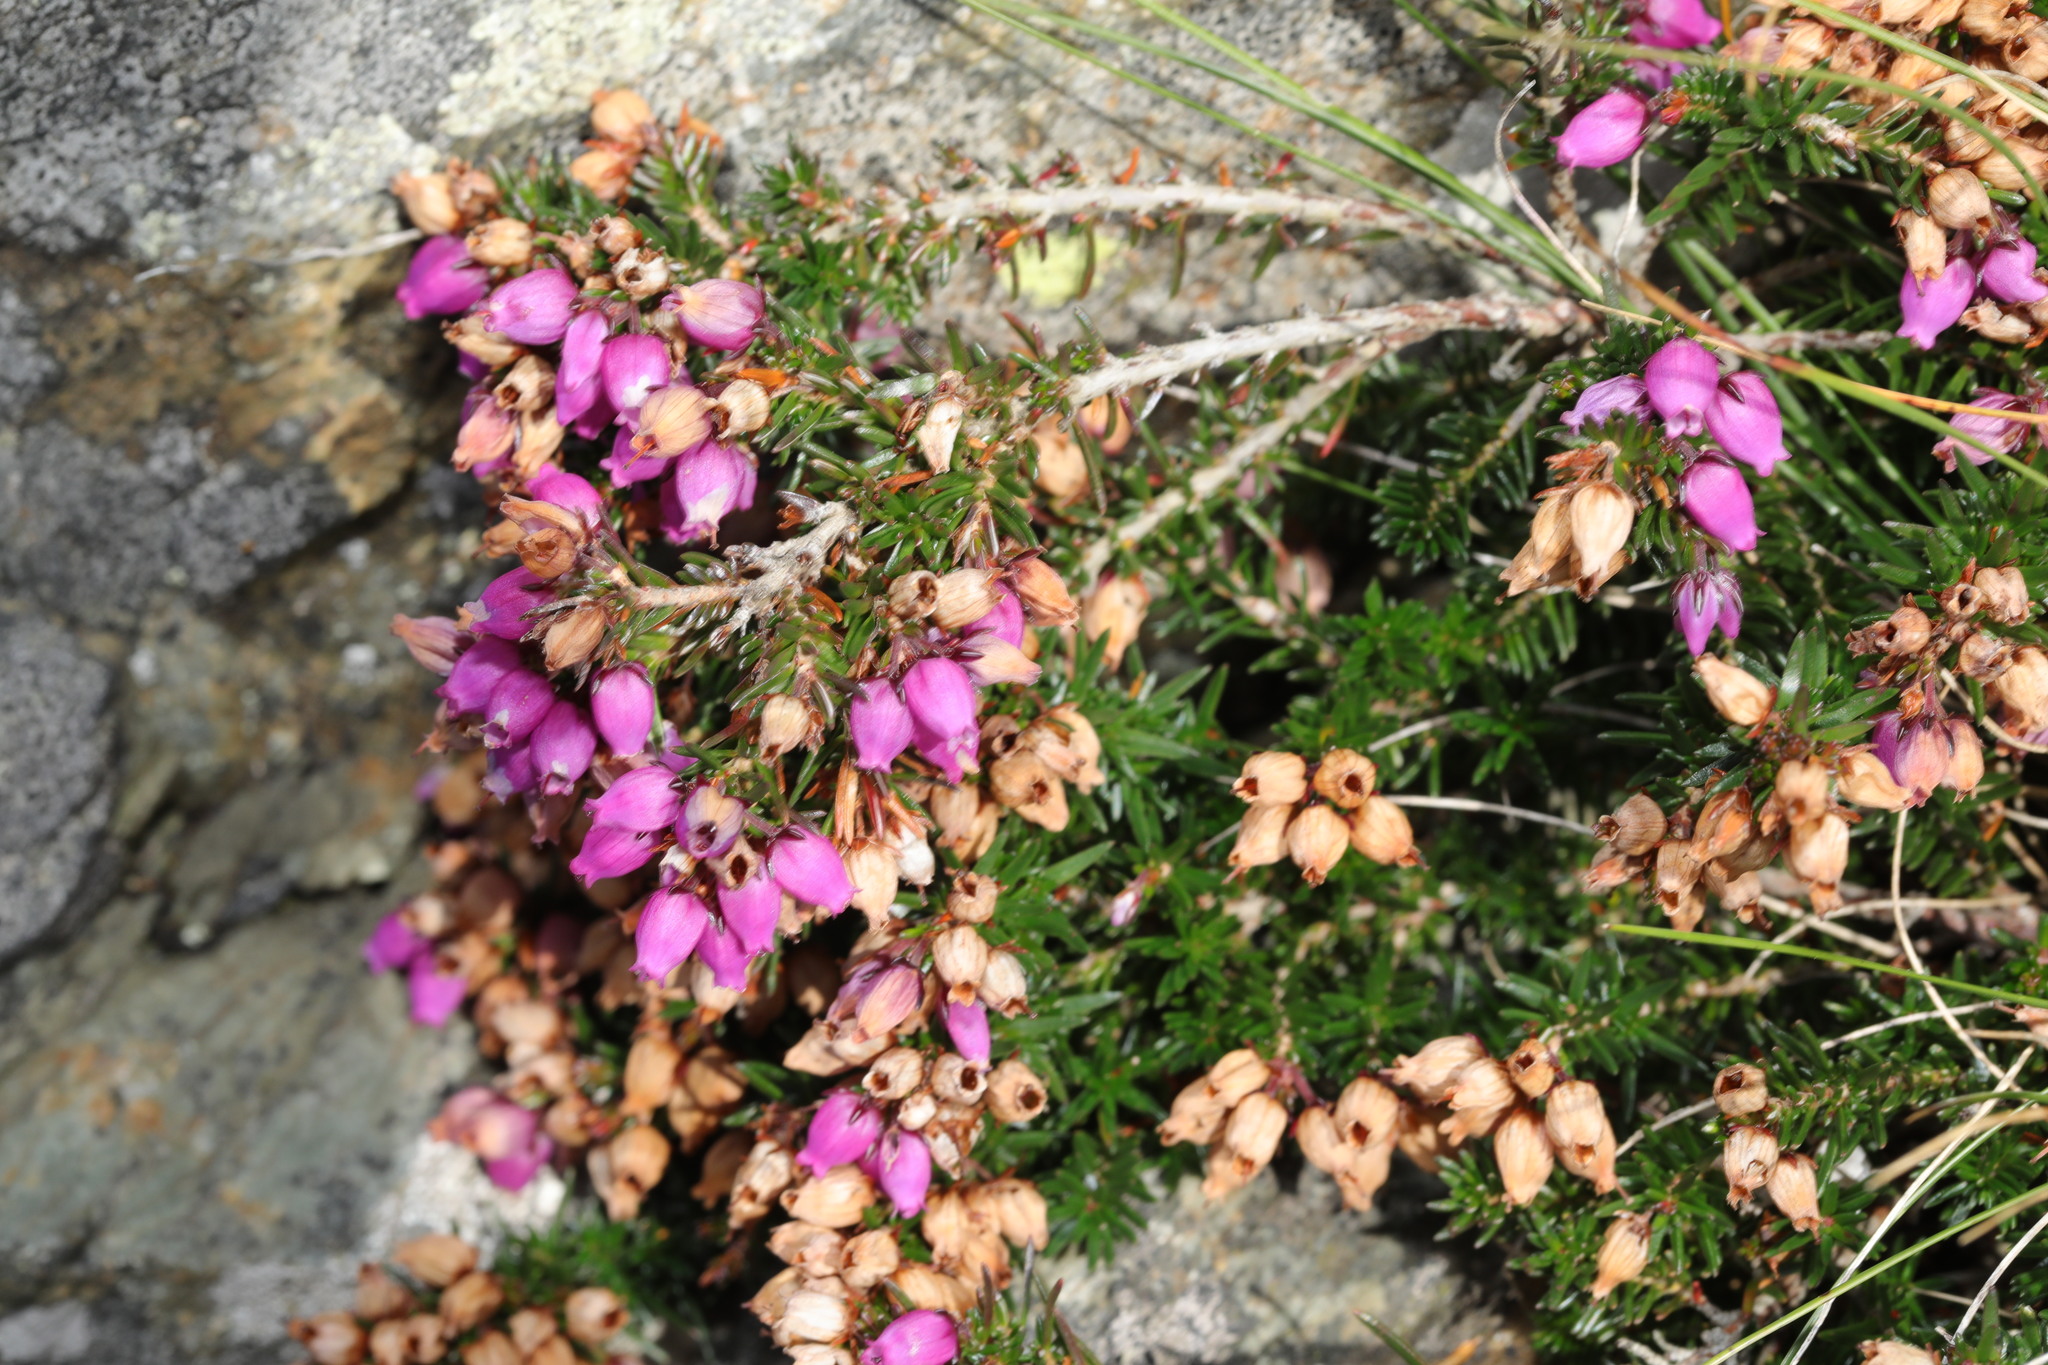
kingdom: Plantae
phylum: Tracheophyta
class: Magnoliopsida
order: Ericales
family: Ericaceae
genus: Erica
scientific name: Erica cinerea
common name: Bell heather
